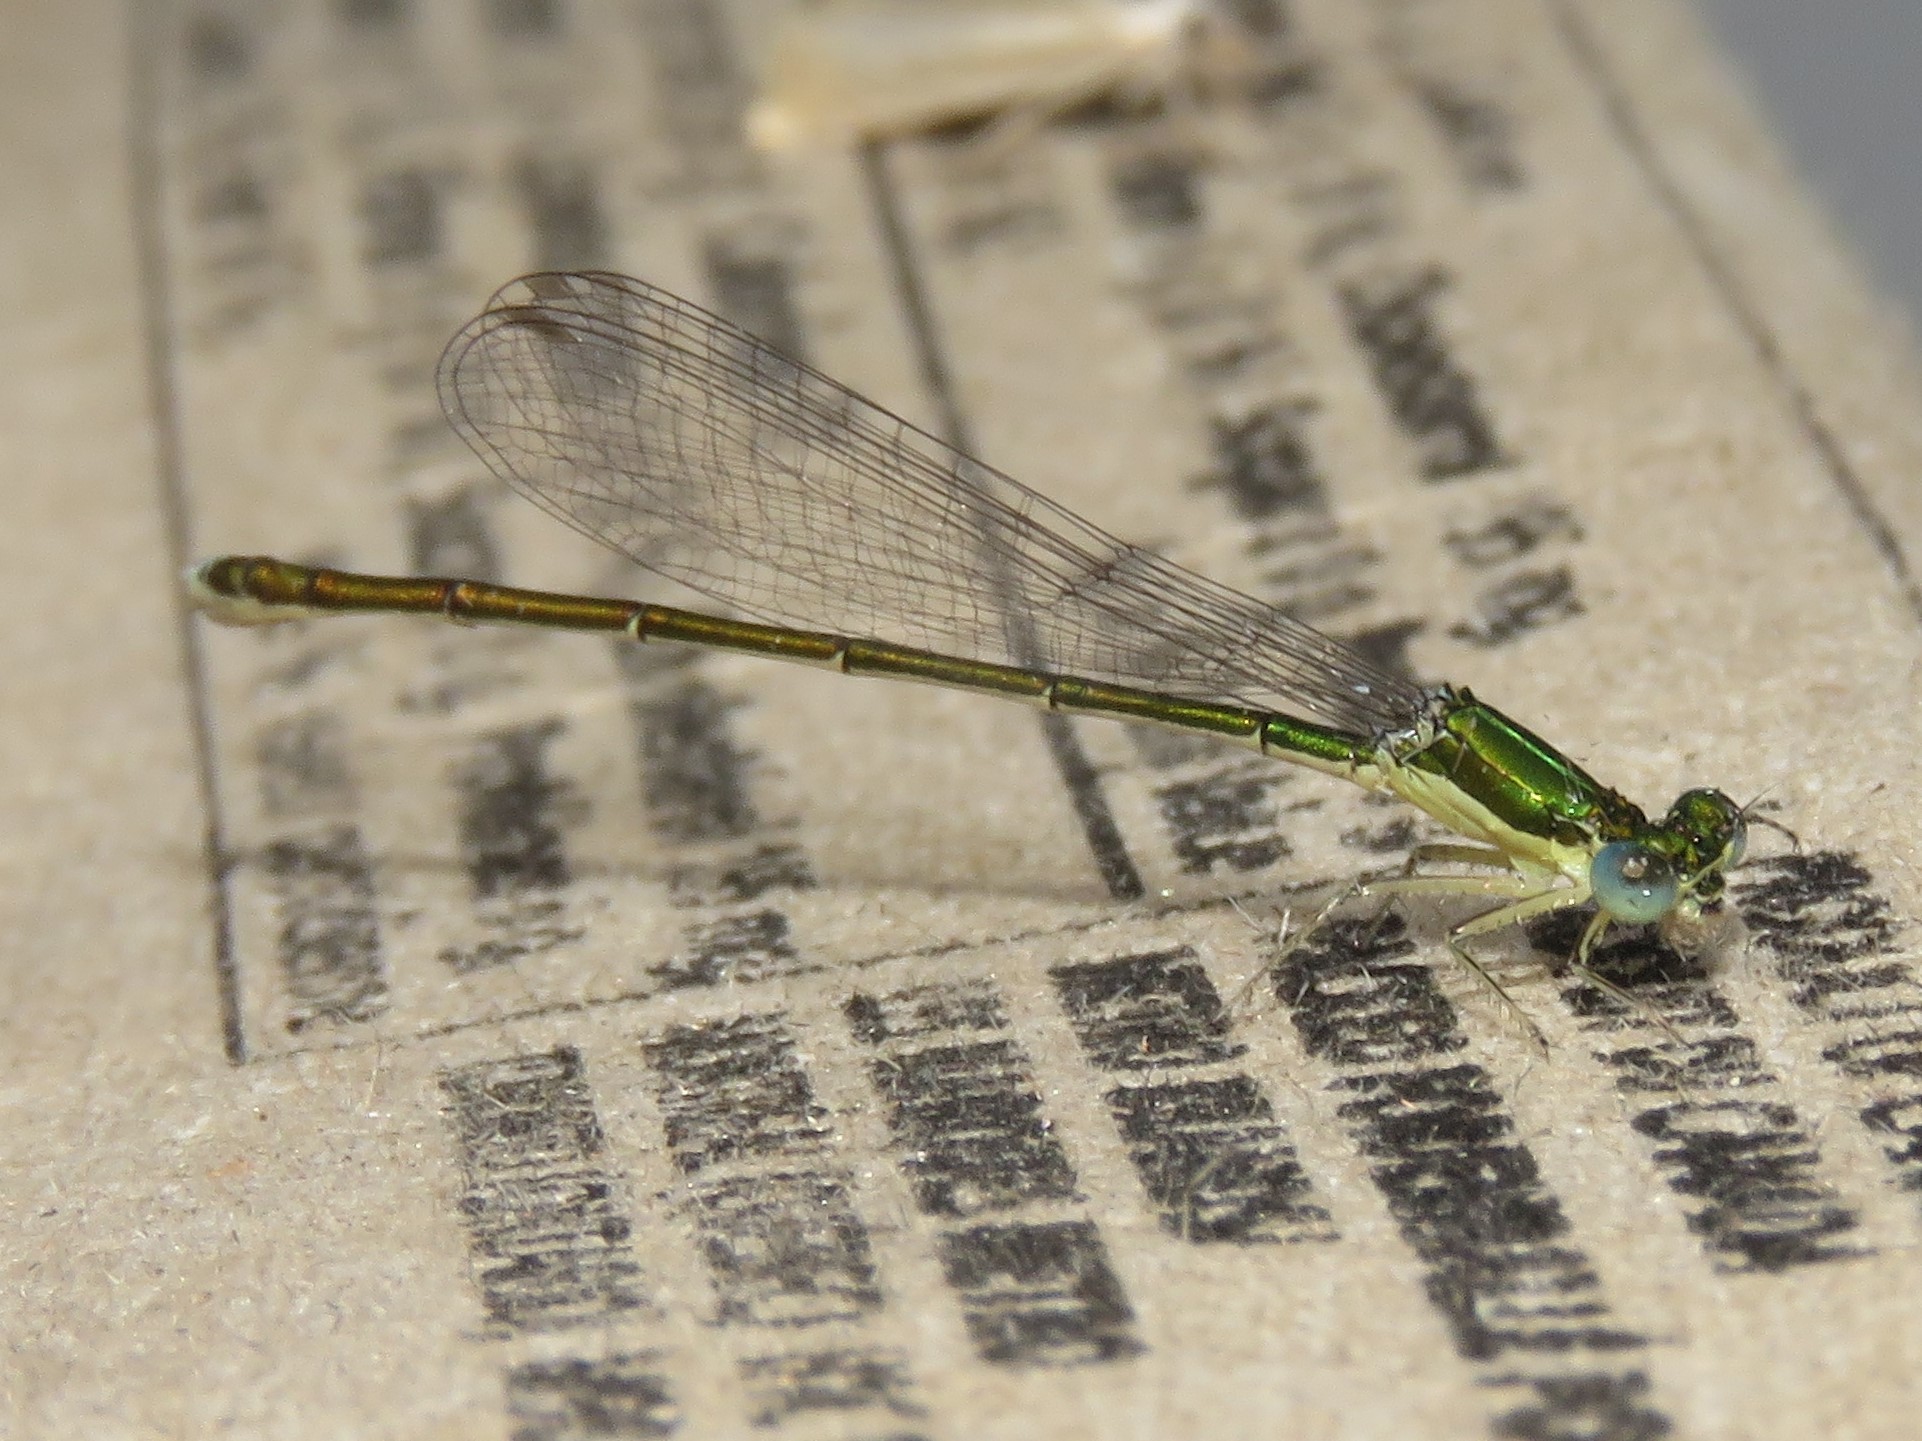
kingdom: Animalia
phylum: Arthropoda
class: Insecta
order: Odonata
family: Coenagrionidae
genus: Nehalennia
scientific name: Nehalennia irene
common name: Sedge sprite
